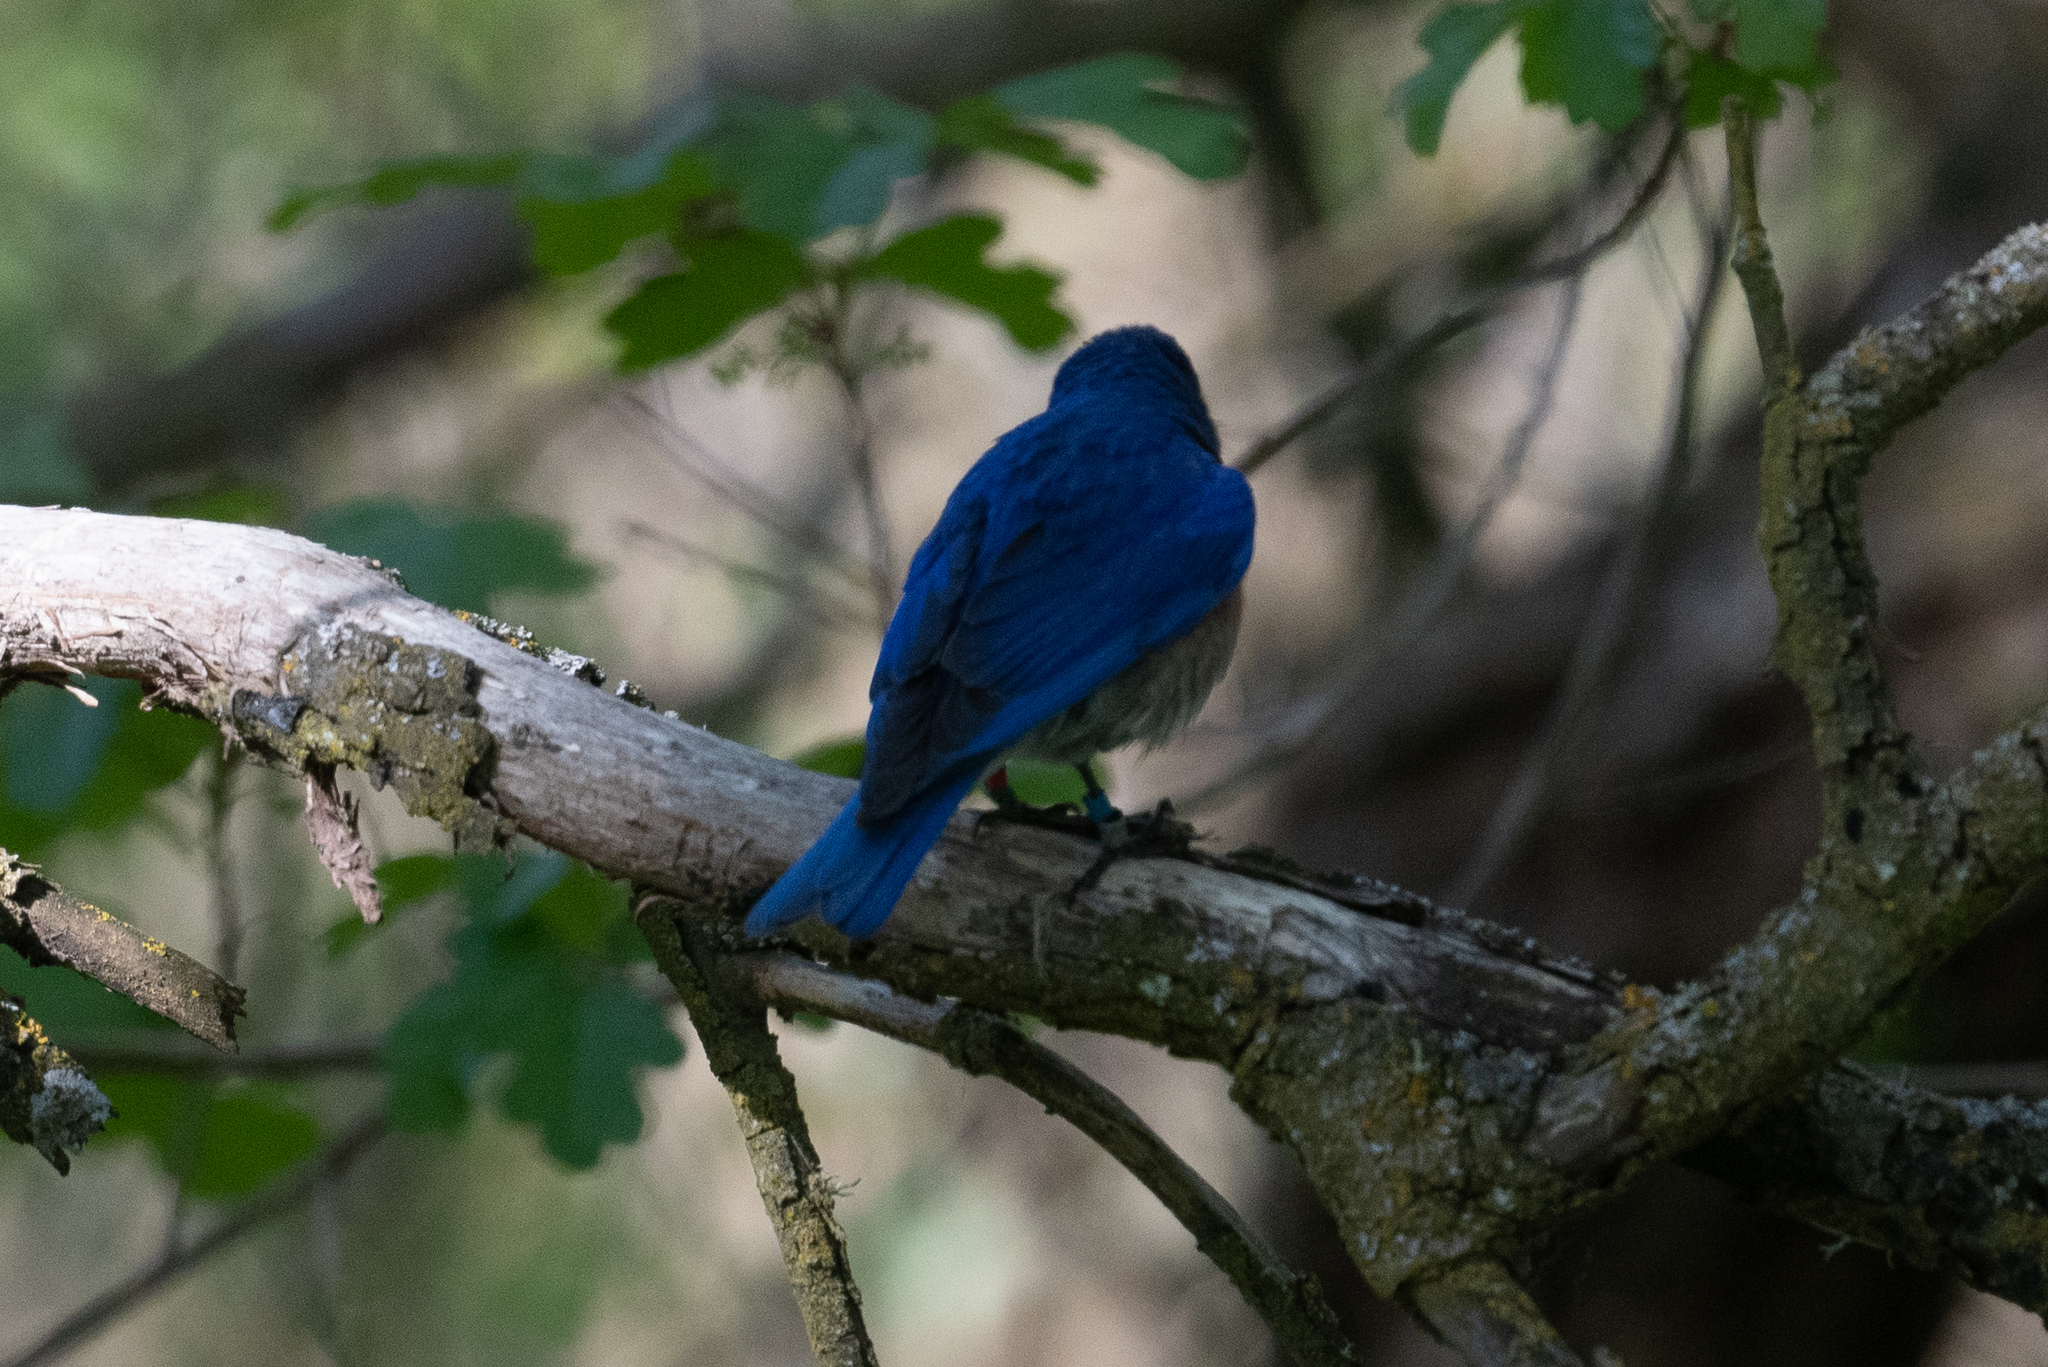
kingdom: Animalia
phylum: Chordata
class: Aves
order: Passeriformes
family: Turdidae
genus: Sialia
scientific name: Sialia mexicana
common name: Western bluebird
